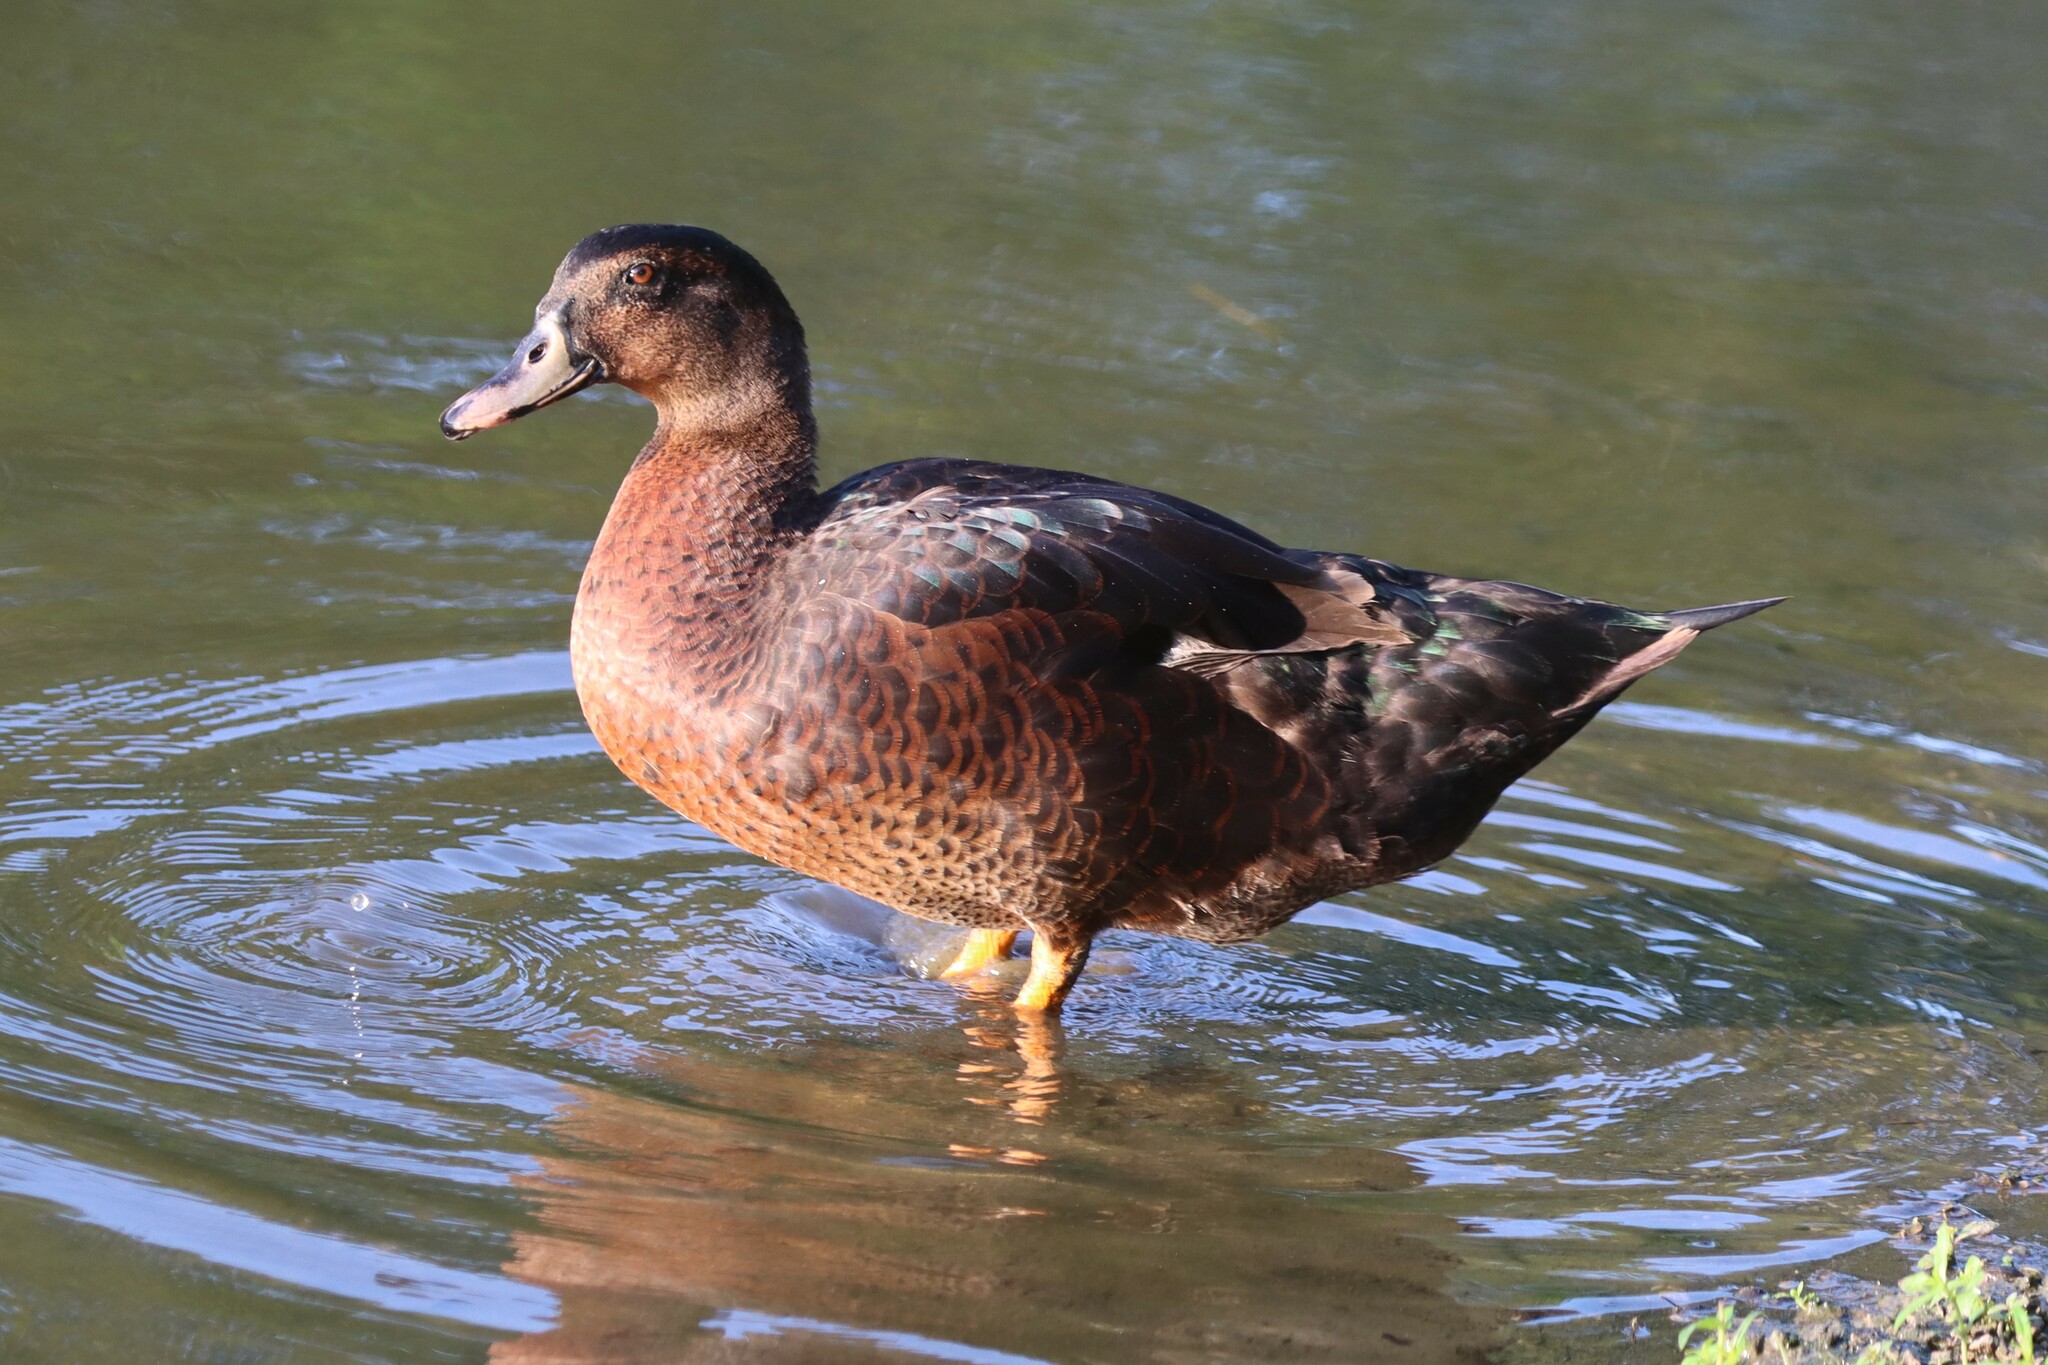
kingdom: Animalia
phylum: Chordata
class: Aves
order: Anseriformes
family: Anatidae
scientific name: Anatidae
